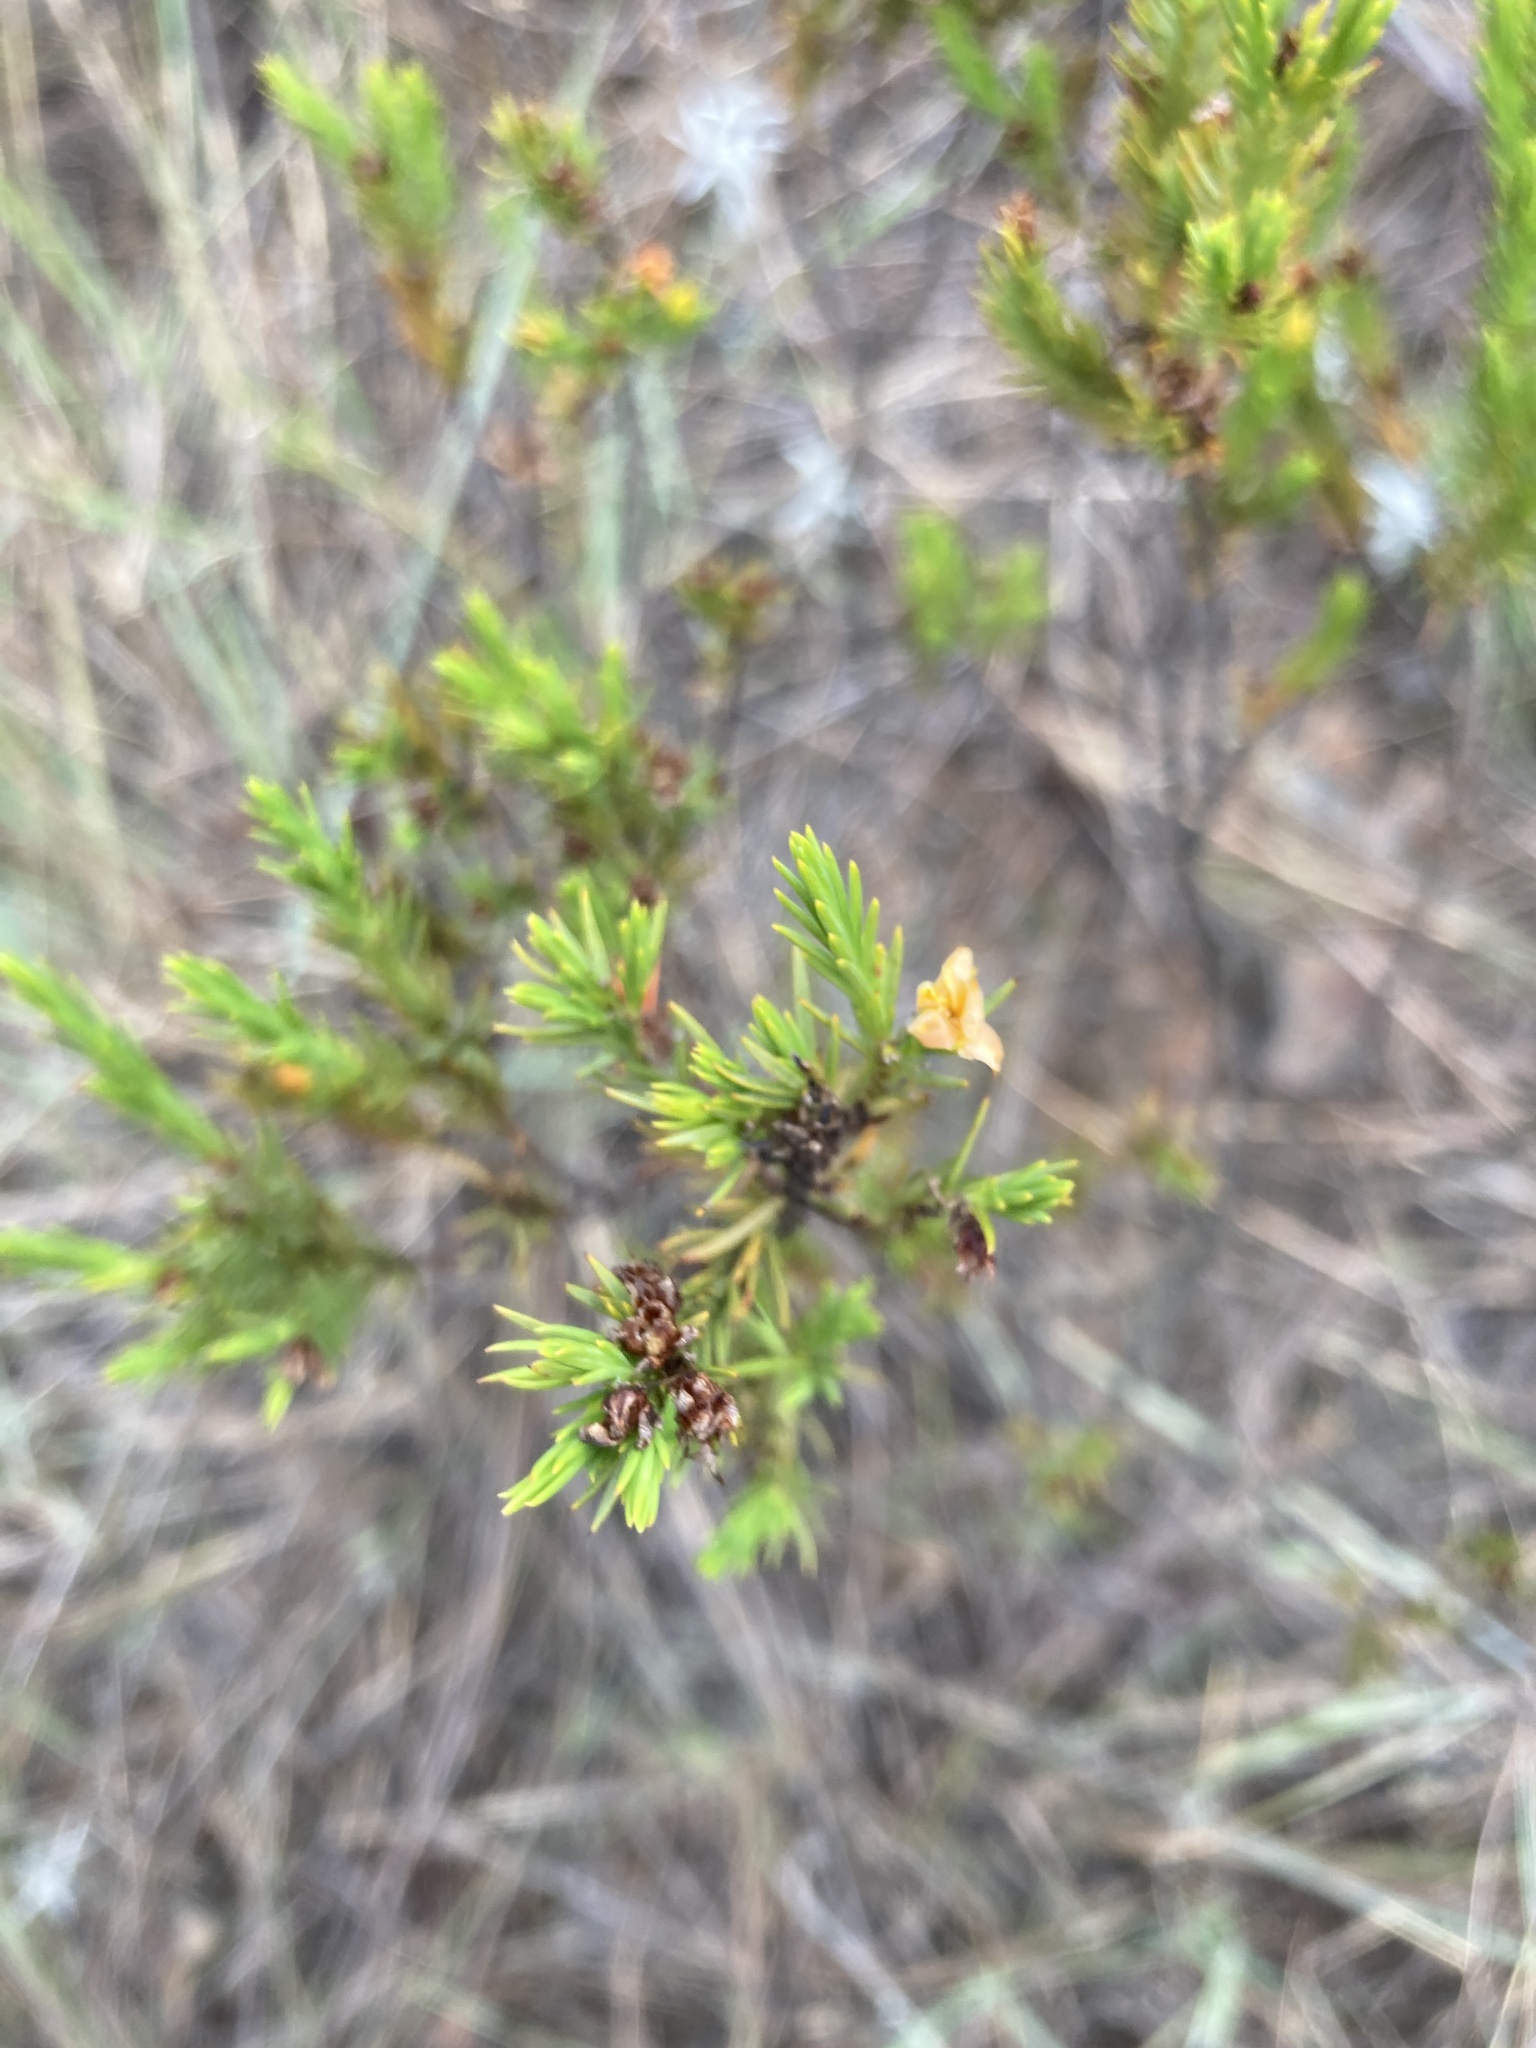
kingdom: Plantae
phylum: Tracheophyta
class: Magnoliopsida
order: Malpighiales
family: Hypericaceae
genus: Hypericum
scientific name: Hypericum juniperinum
